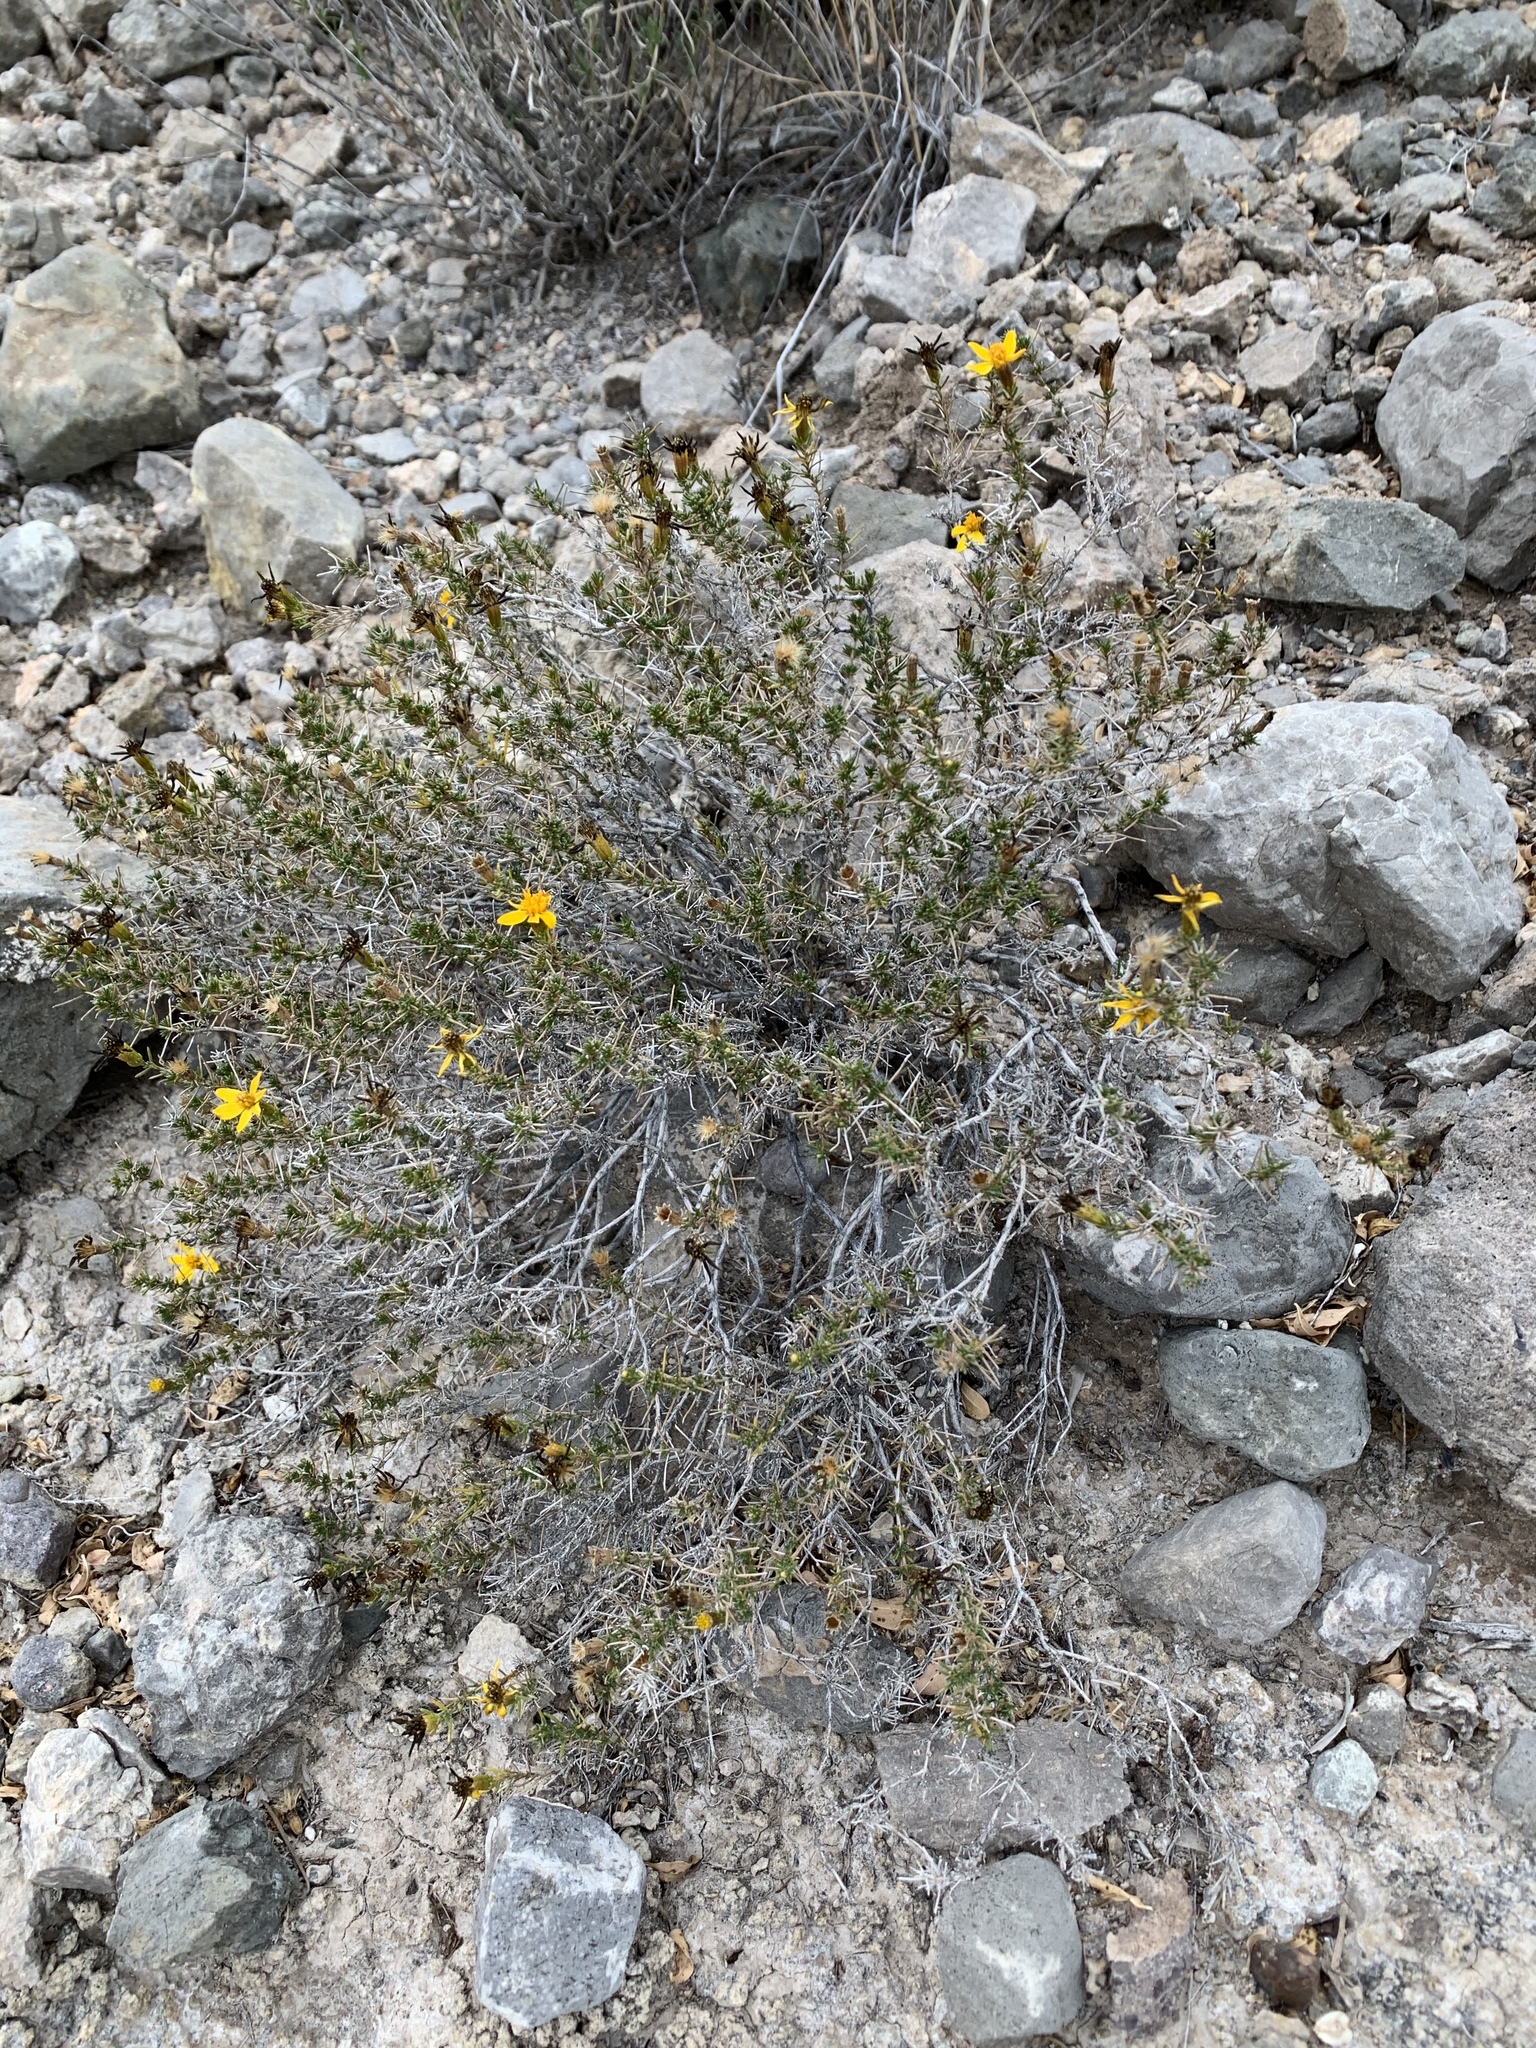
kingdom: Plantae
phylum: Tracheophyta
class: Magnoliopsida
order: Asterales
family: Asteraceae
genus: Thymophylla
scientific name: Thymophylla acerosa
